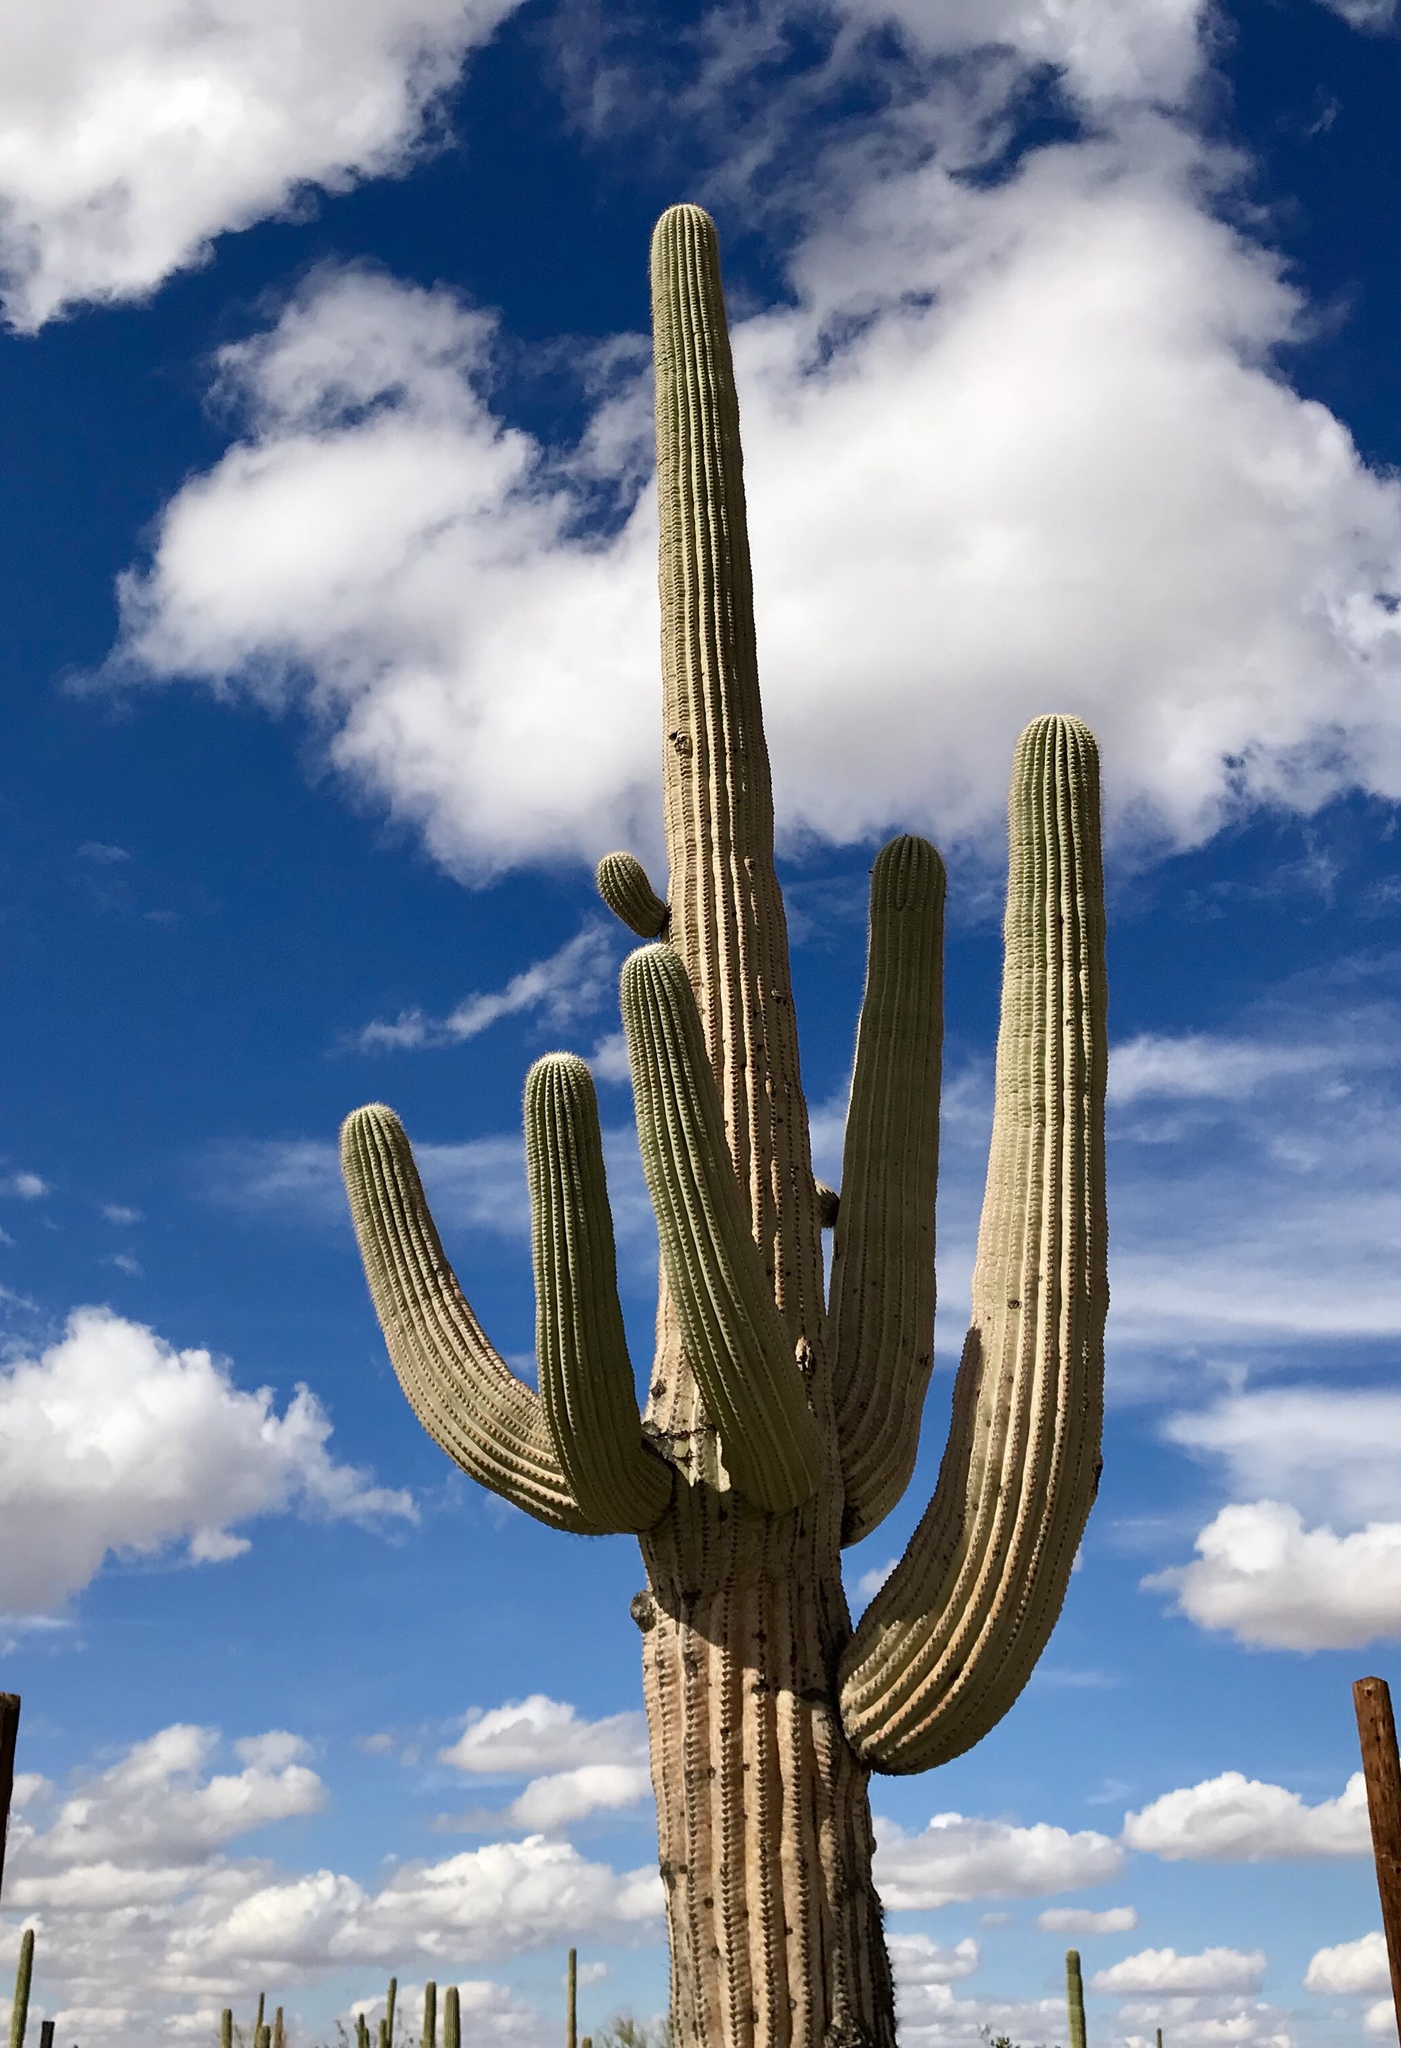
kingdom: Plantae
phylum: Tracheophyta
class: Magnoliopsida
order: Caryophyllales
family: Cactaceae
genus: Carnegiea
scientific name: Carnegiea gigantea
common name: Saguaro
